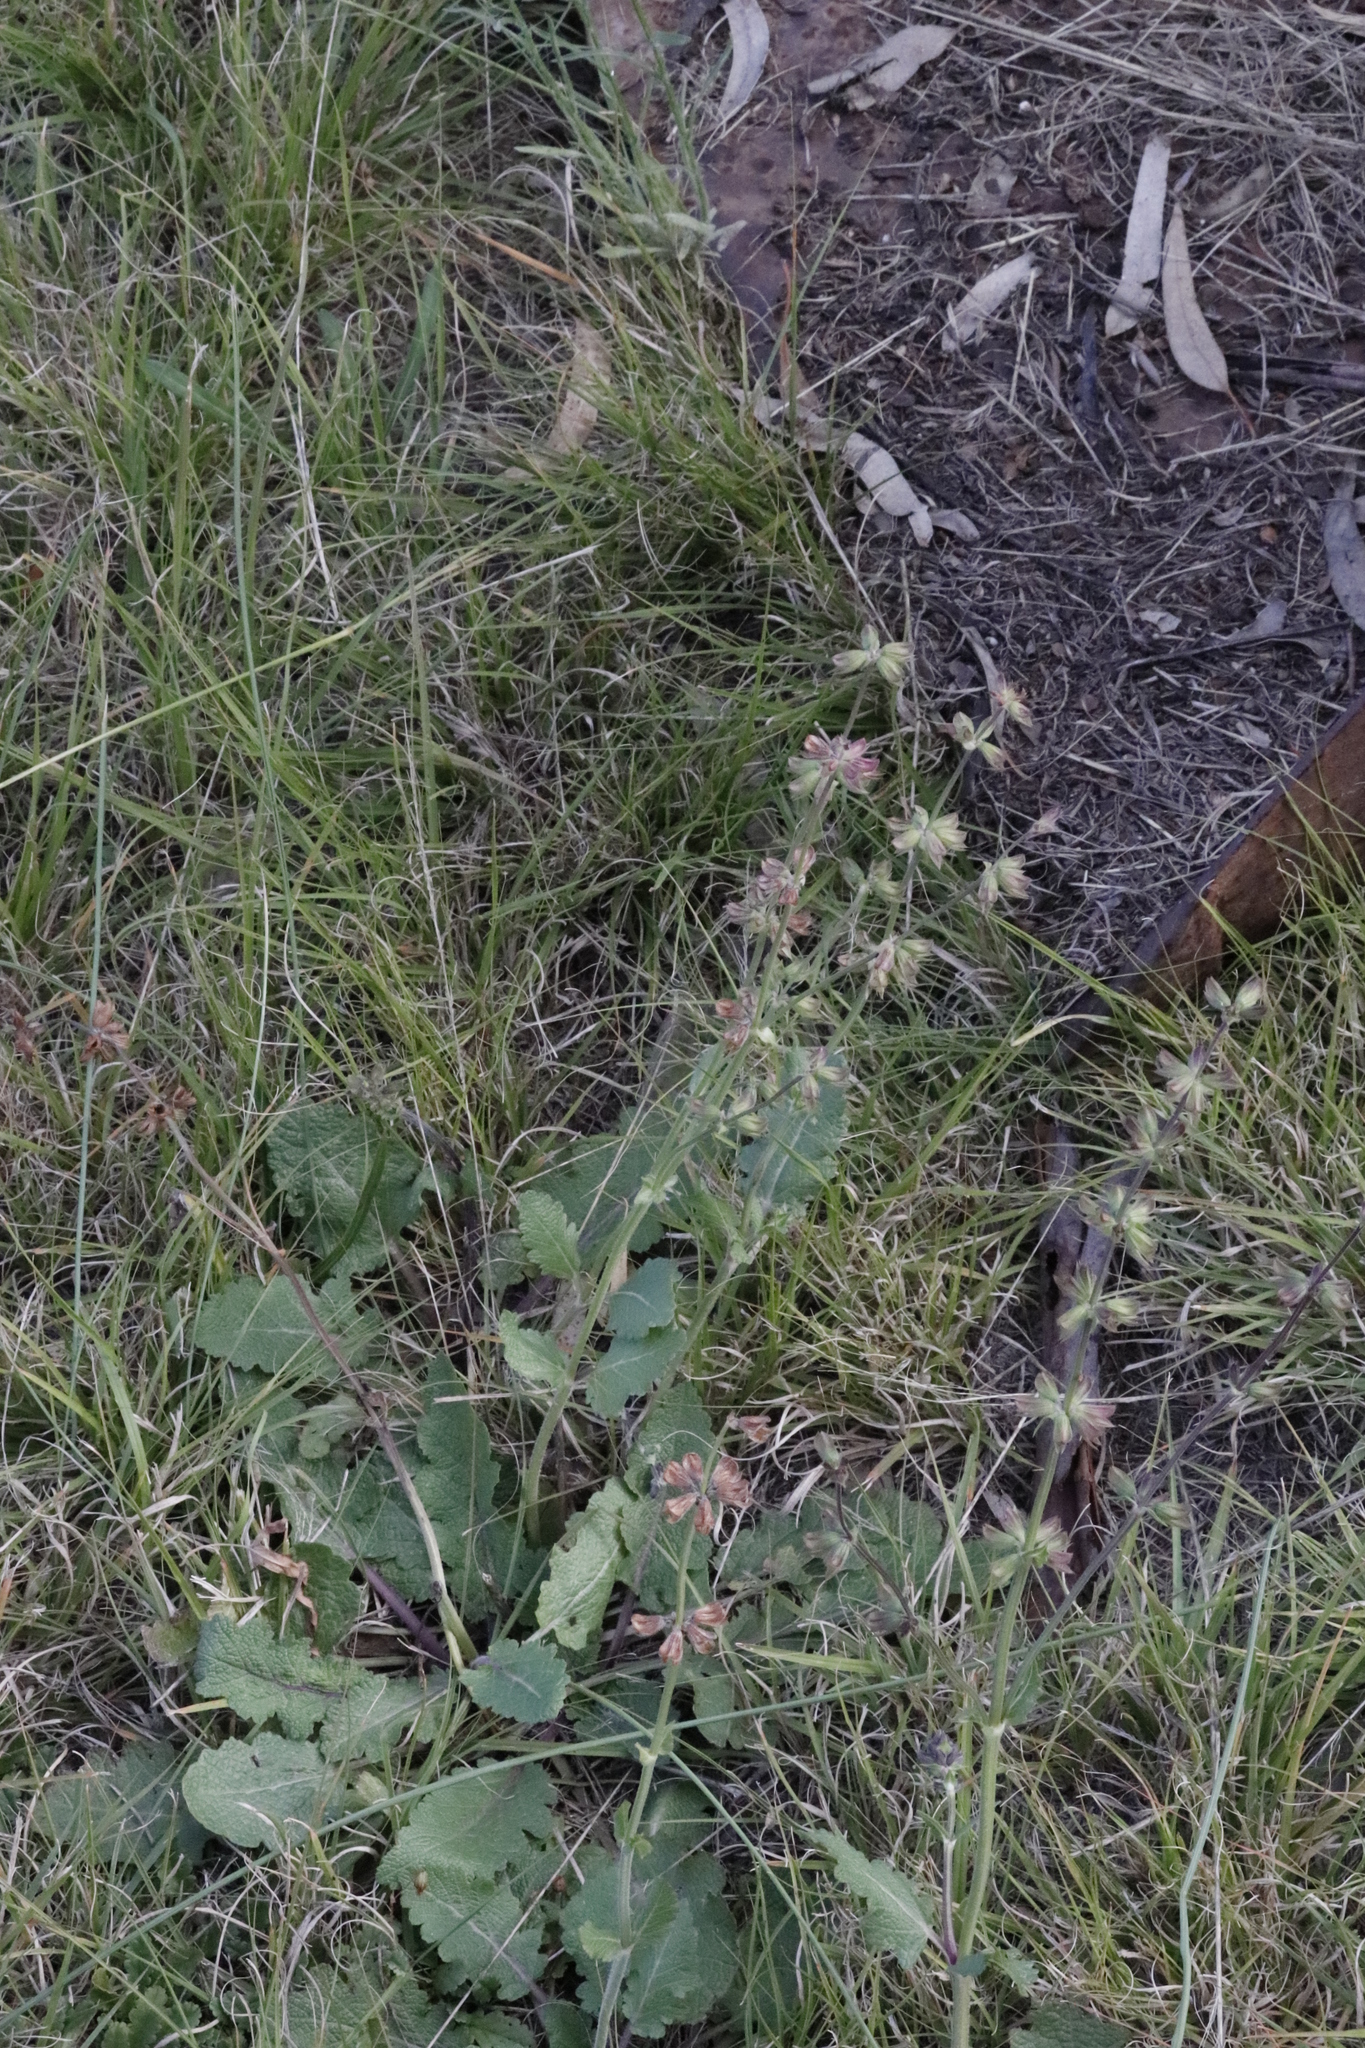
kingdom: Plantae
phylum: Tracheophyta
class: Magnoliopsida
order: Lamiales
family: Lamiaceae
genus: Salvia
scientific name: Salvia verbenaca
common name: Wild clary
